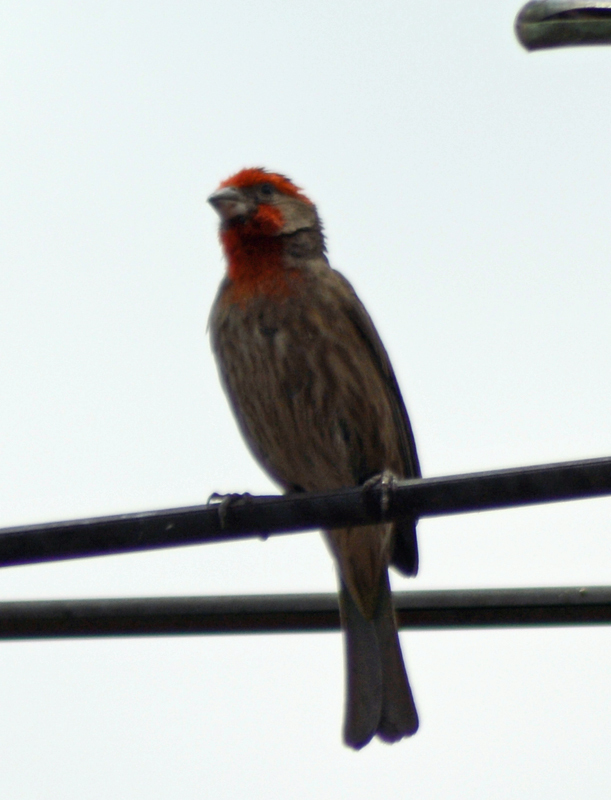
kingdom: Animalia
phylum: Chordata
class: Aves
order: Passeriformes
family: Fringillidae
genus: Haemorhous
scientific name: Haemorhous mexicanus
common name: House finch
